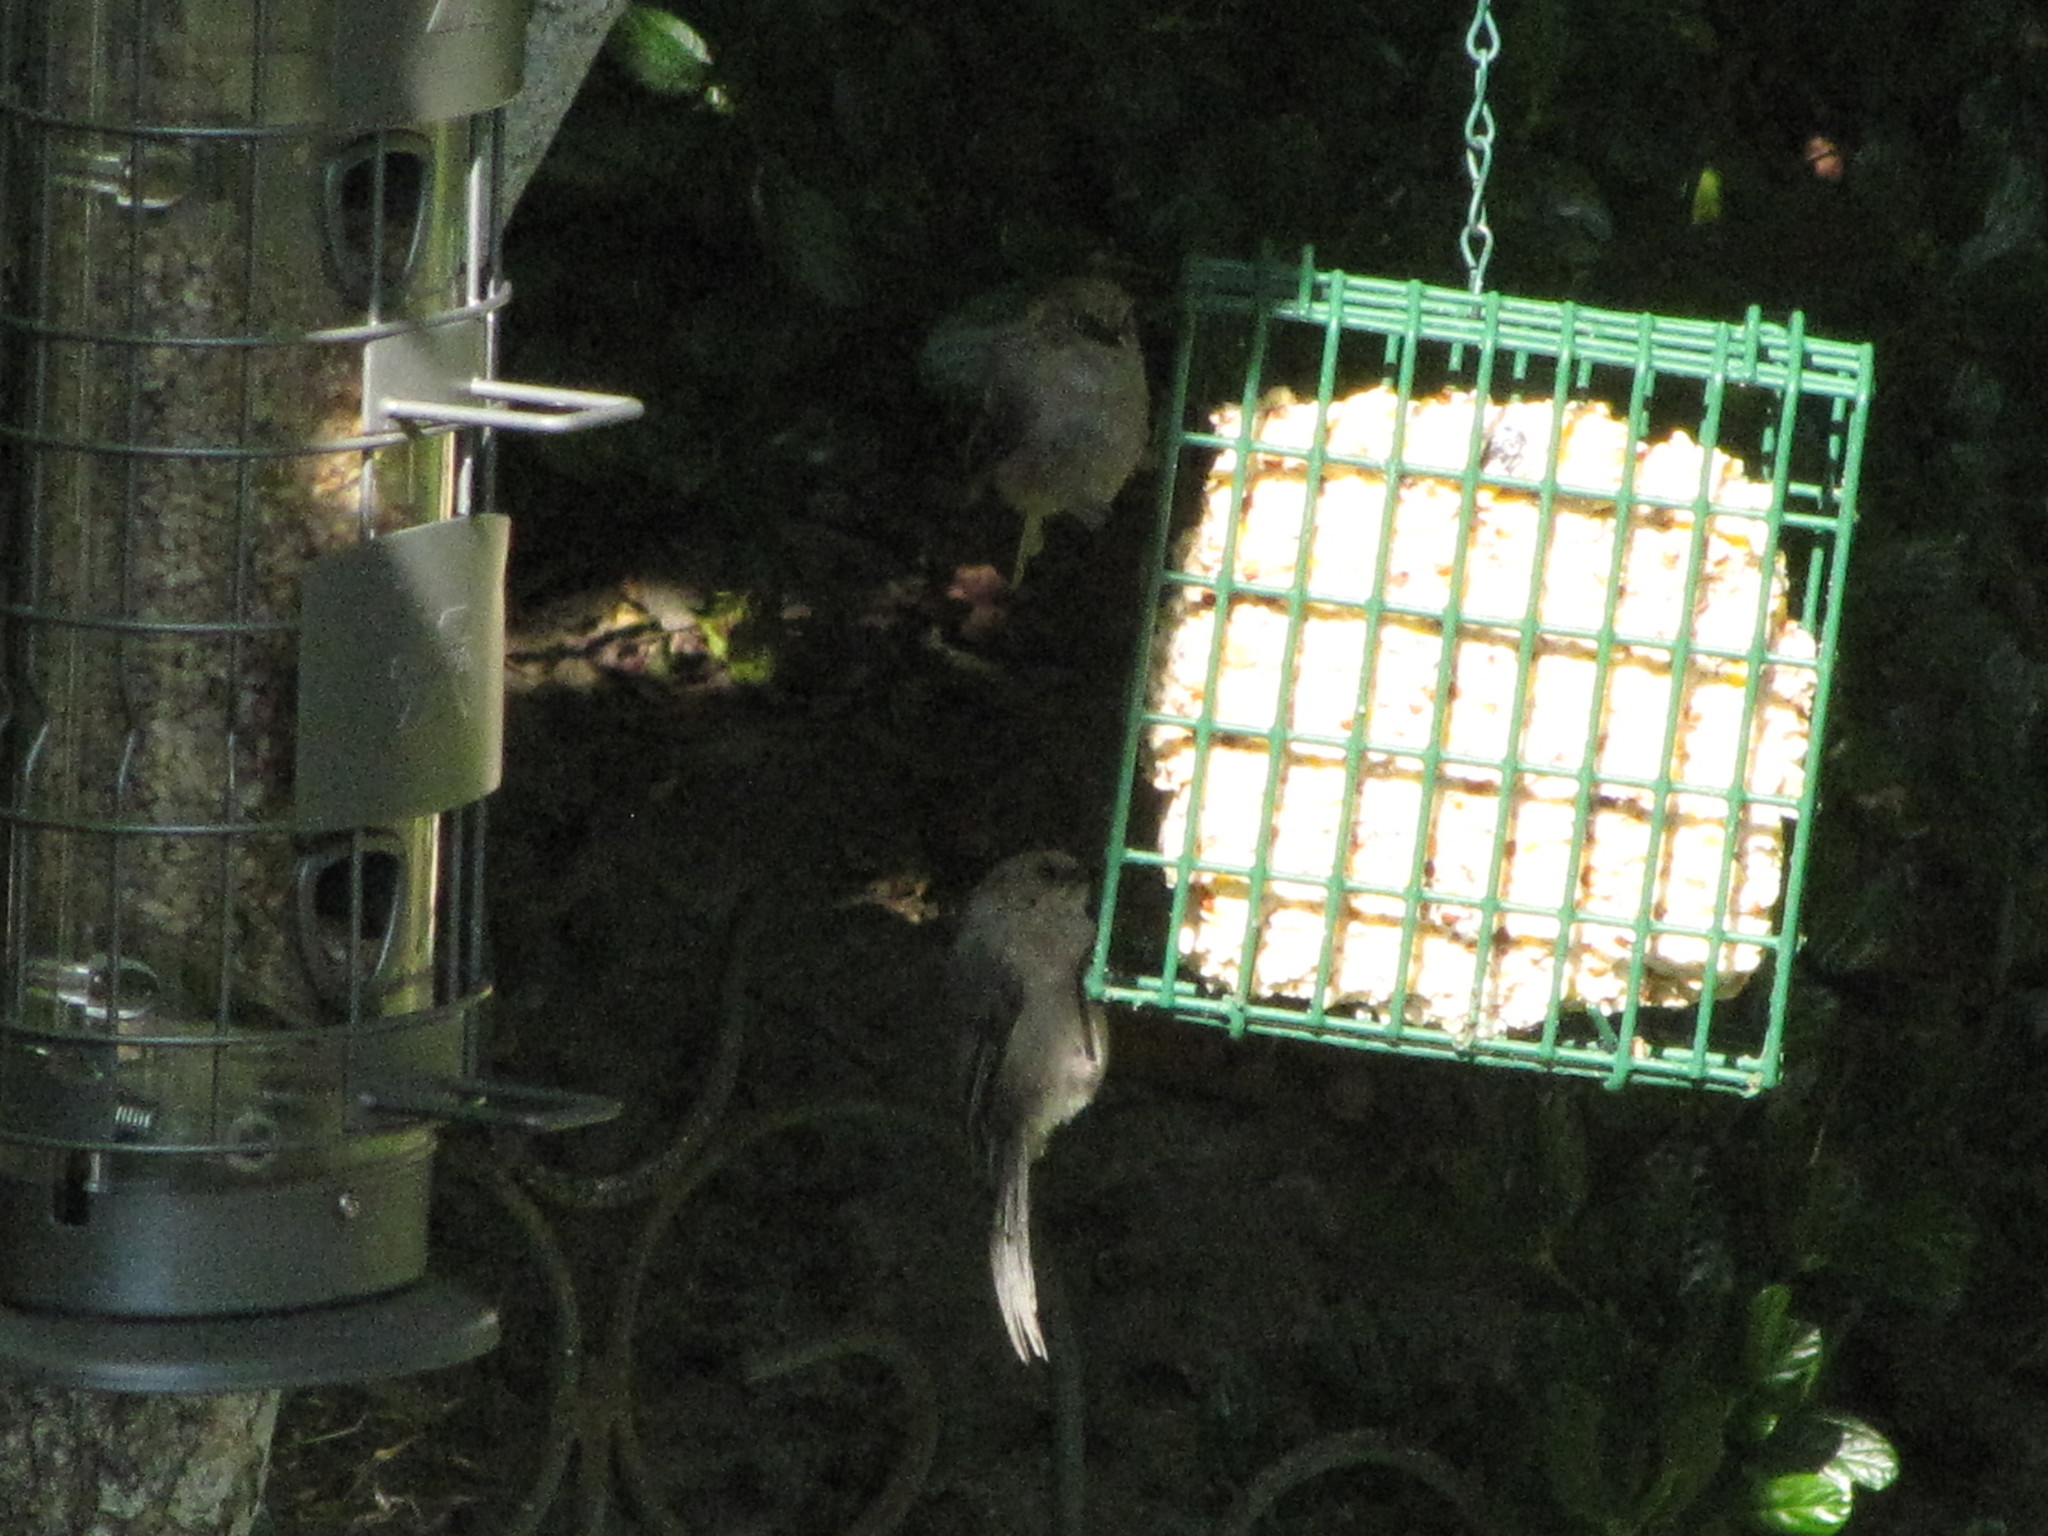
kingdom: Animalia
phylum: Chordata
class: Aves
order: Passeriformes
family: Aegithalidae
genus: Psaltriparus
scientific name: Psaltriparus minimus
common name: American bushtit
